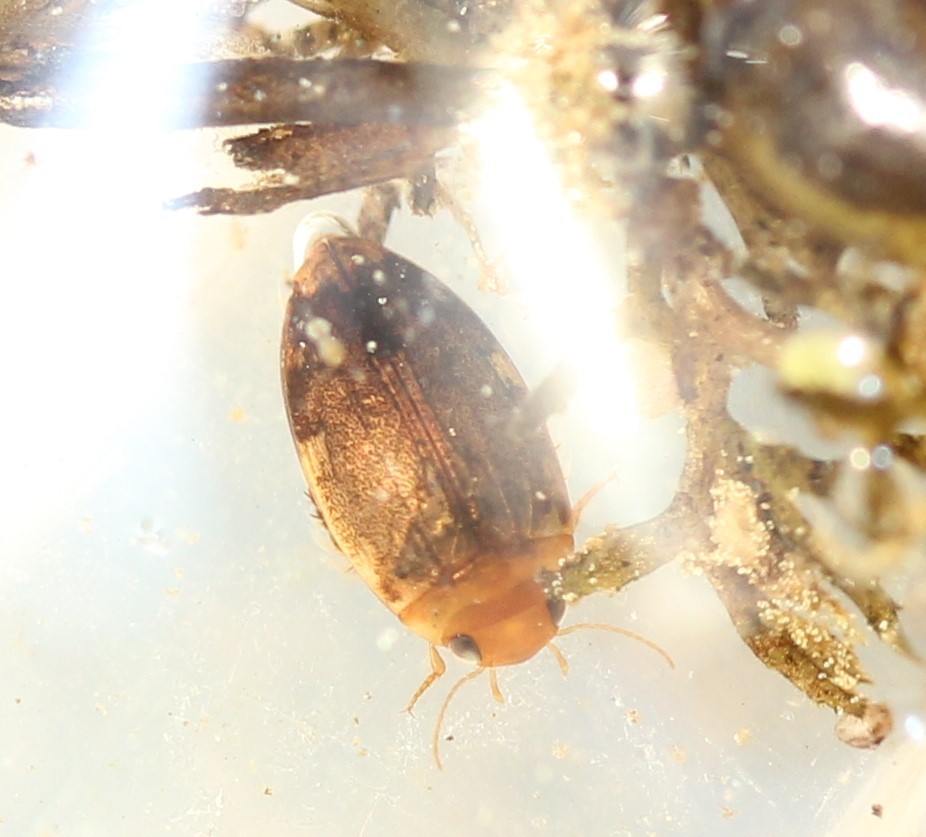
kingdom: Animalia
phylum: Arthropoda
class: Insecta
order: Coleoptera
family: Dytiscidae
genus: Laccophilus
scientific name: Laccophilus proximus
